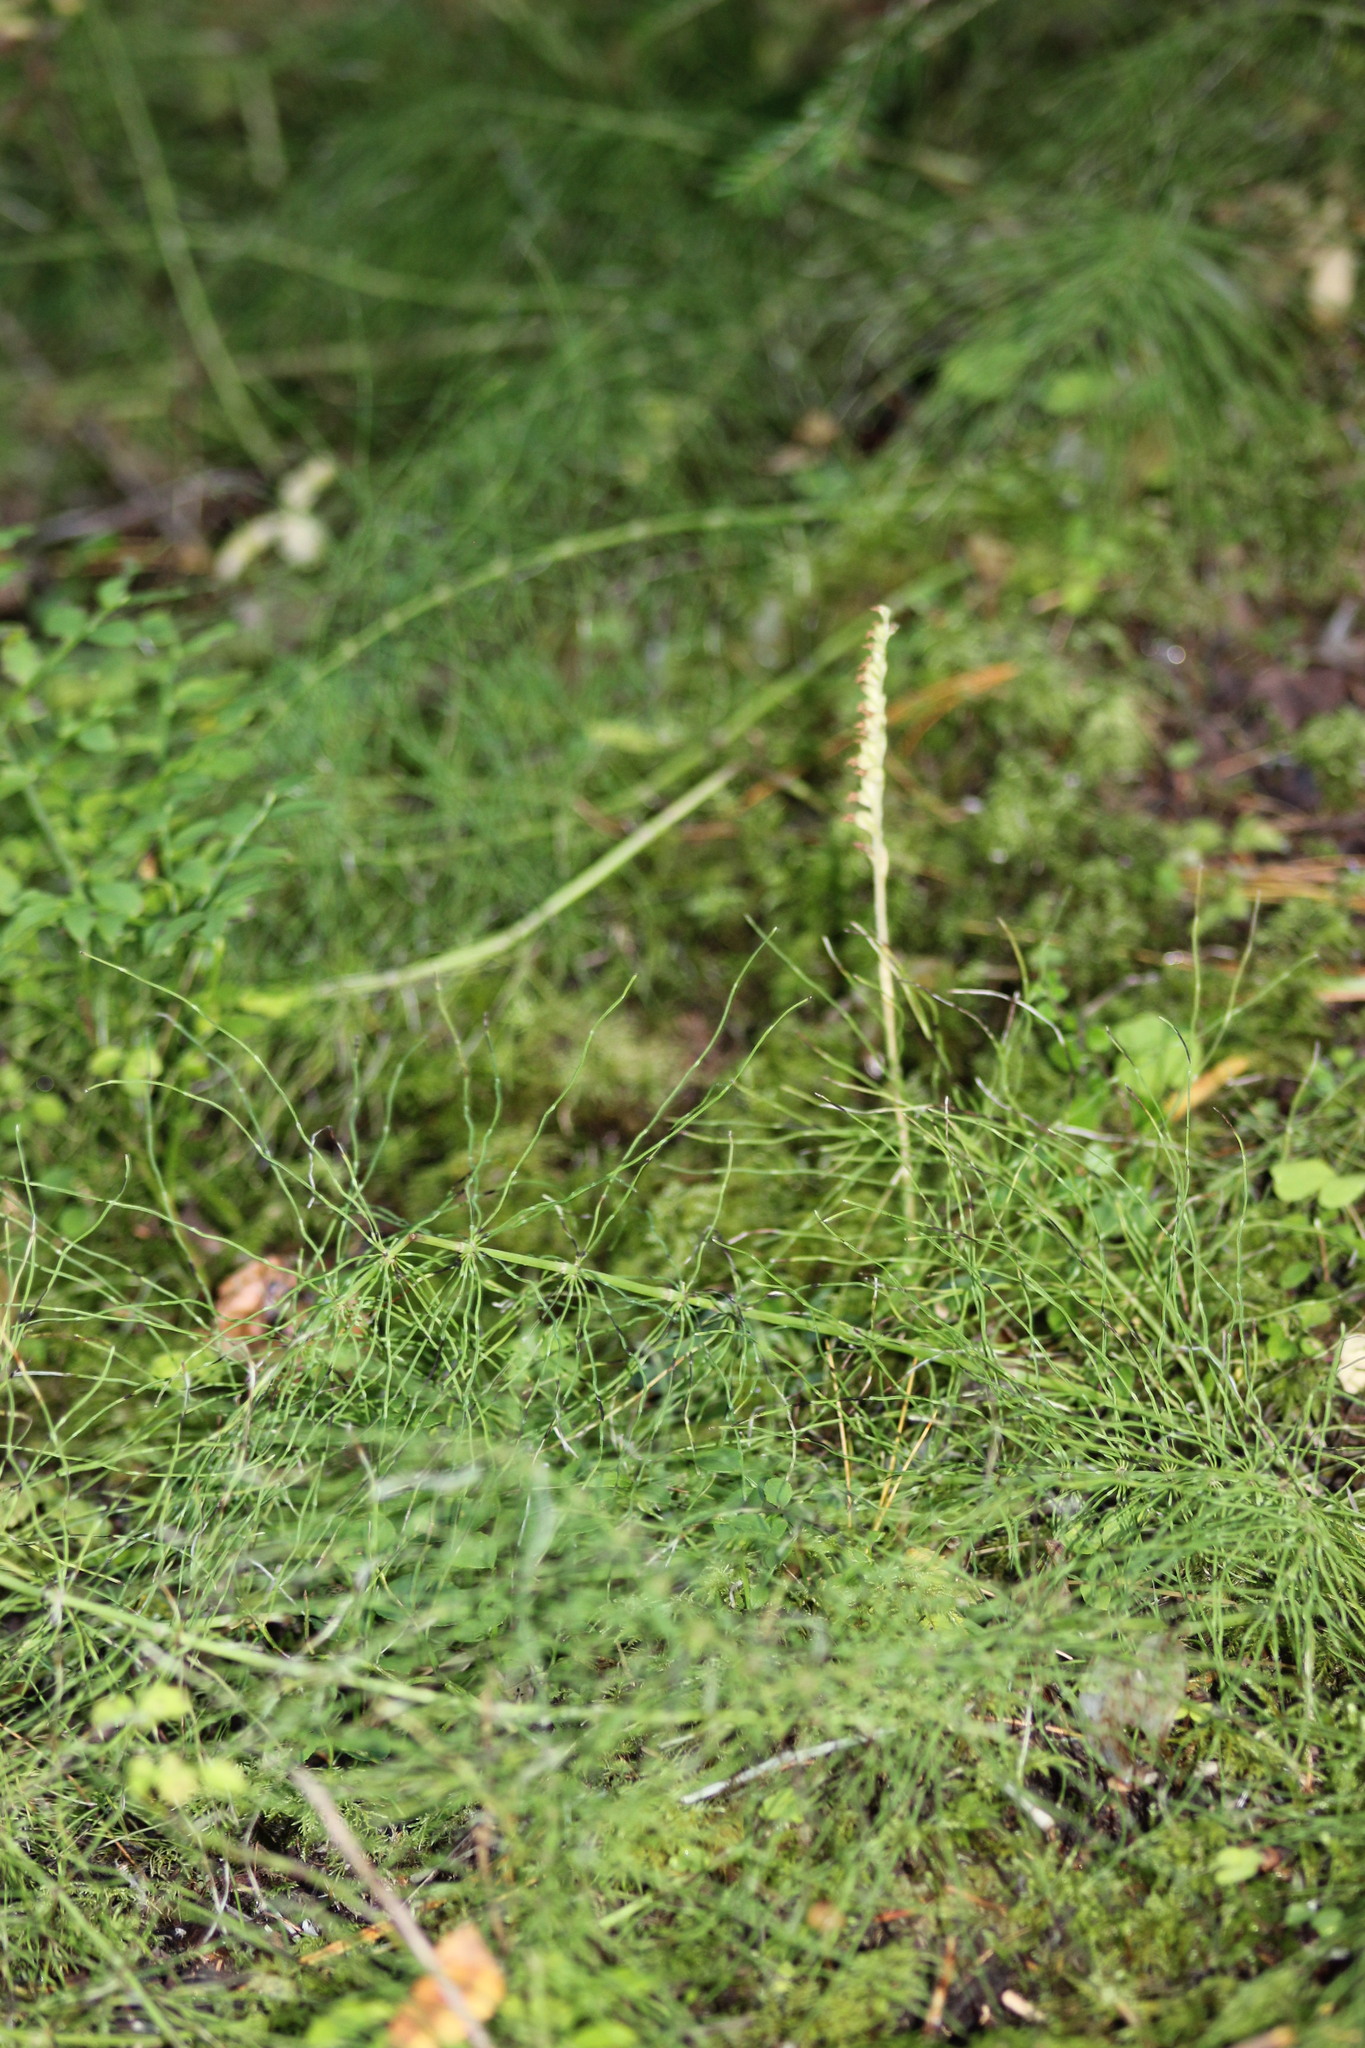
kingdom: Plantae
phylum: Tracheophyta
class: Liliopsida
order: Asparagales
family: Orchidaceae
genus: Goodyera
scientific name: Goodyera repens
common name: Creeping lady's-tresses
